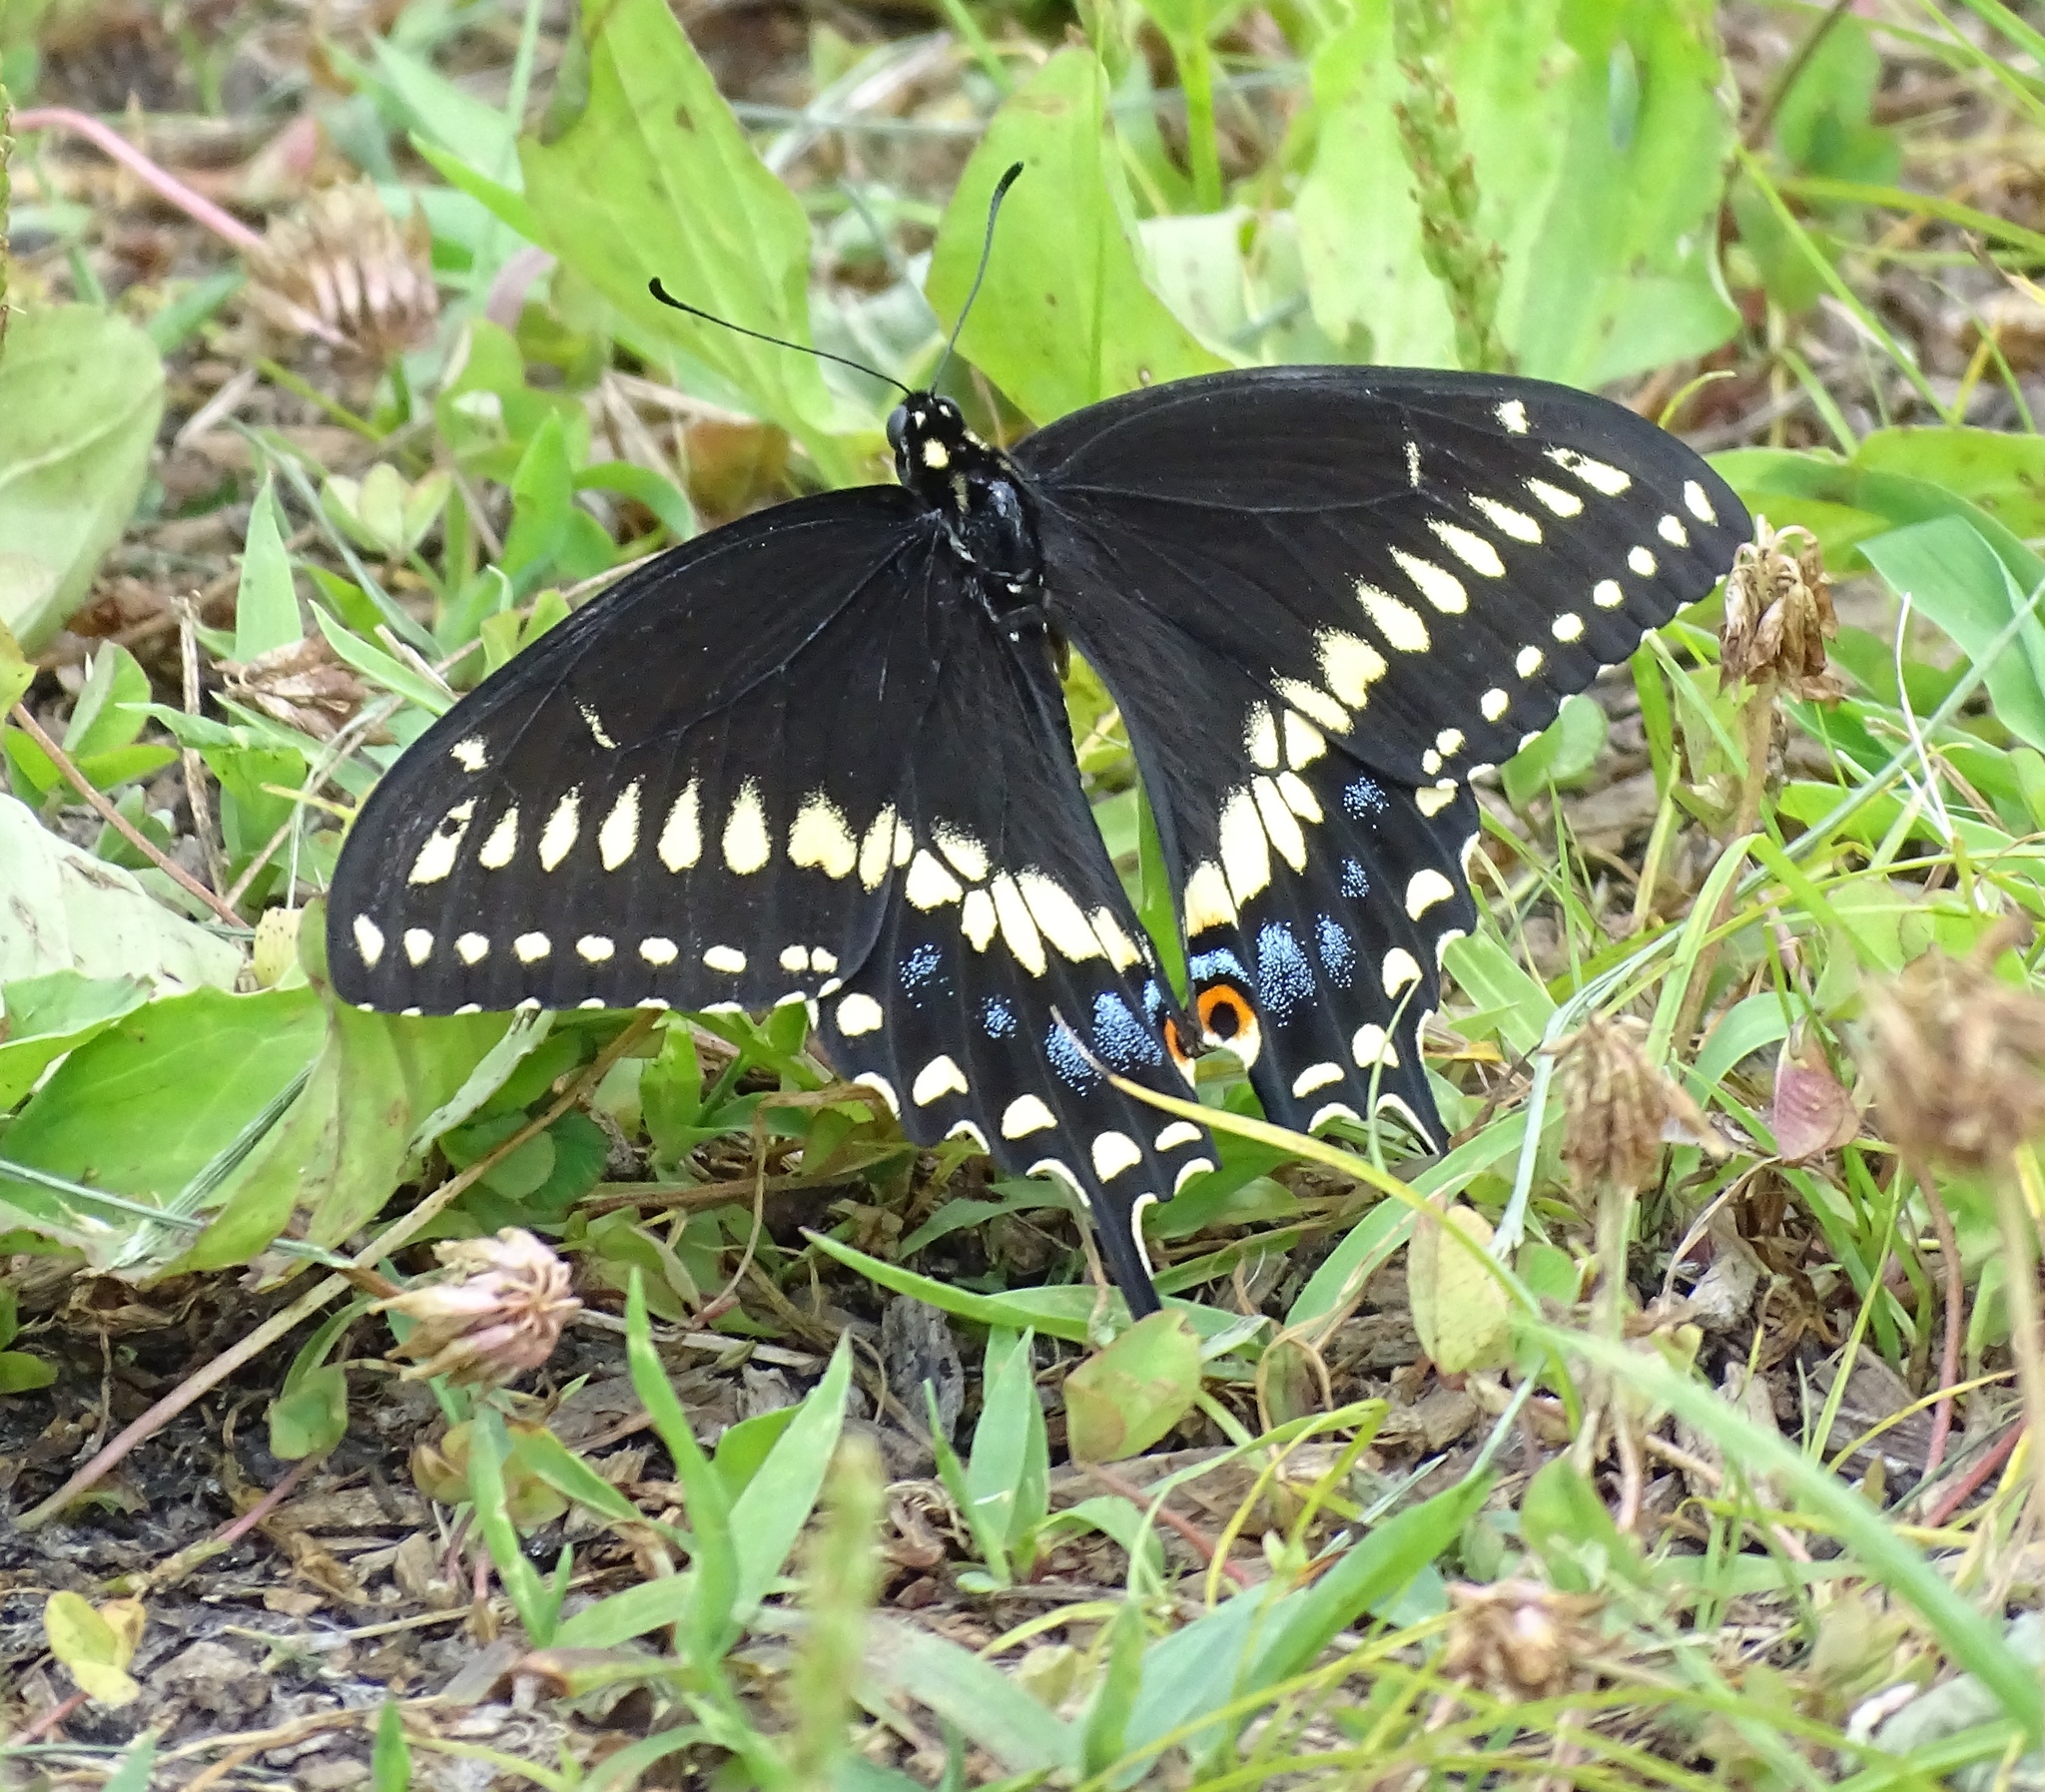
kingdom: Animalia
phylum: Arthropoda
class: Insecta
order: Lepidoptera
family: Papilionidae
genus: Papilio
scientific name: Papilio polyxenes
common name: Black swallowtail
